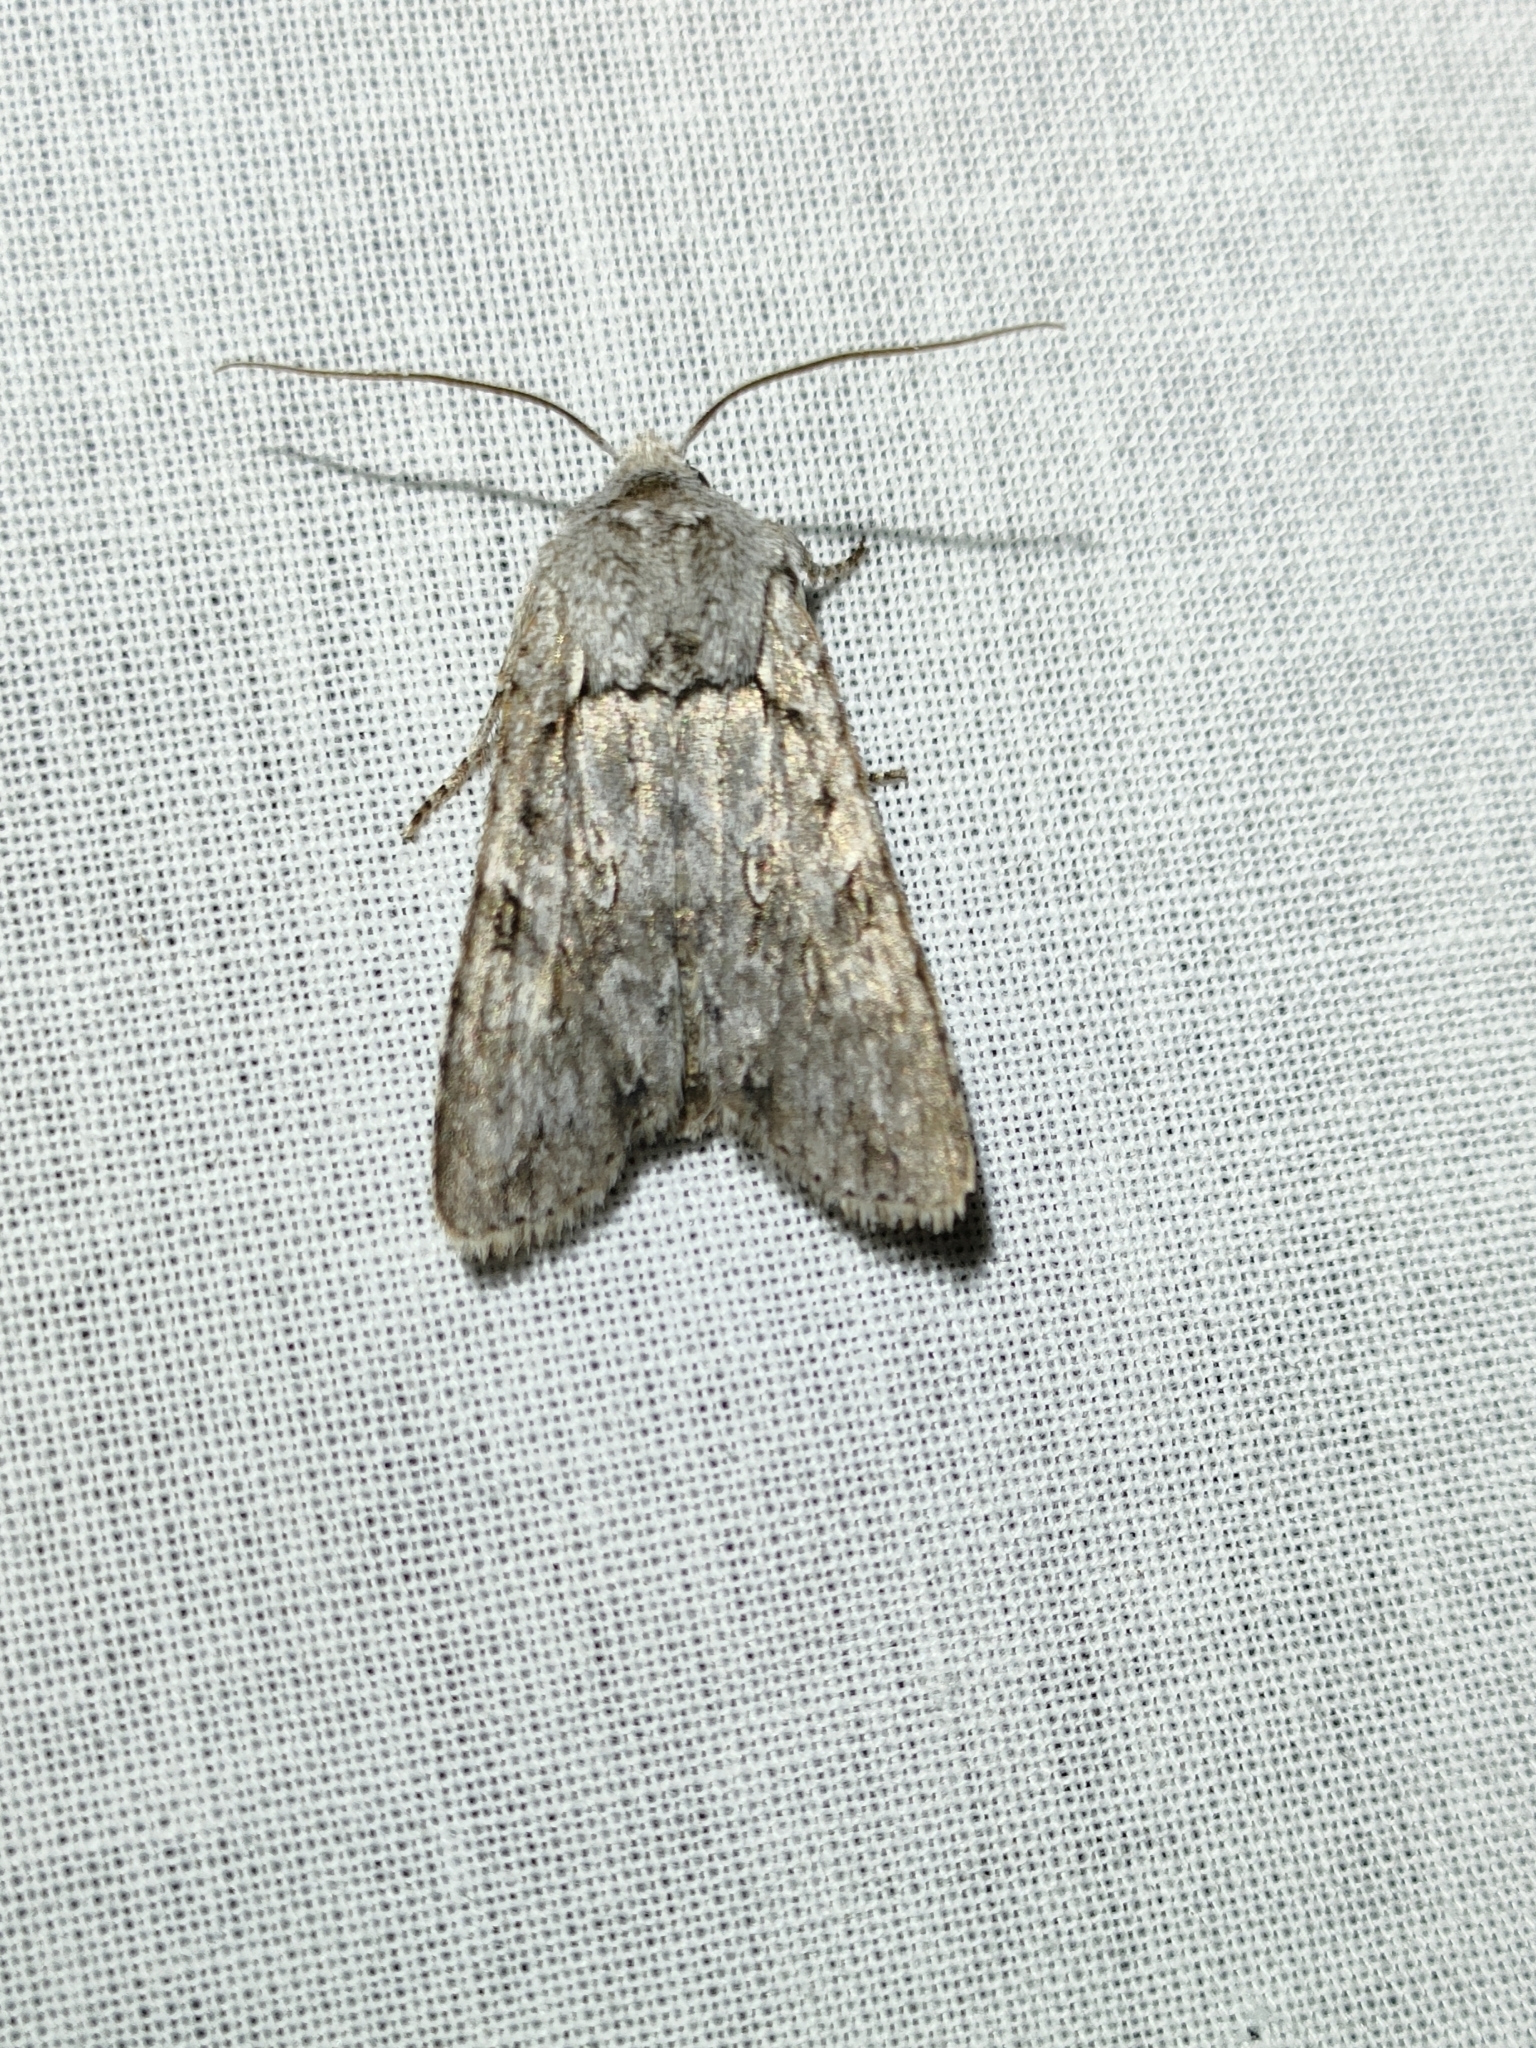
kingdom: Animalia
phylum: Arthropoda
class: Insecta
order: Lepidoptera
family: Noctuidae
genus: Lithophane
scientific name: Lithophane ornitopus
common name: Grey shoulder-knot
